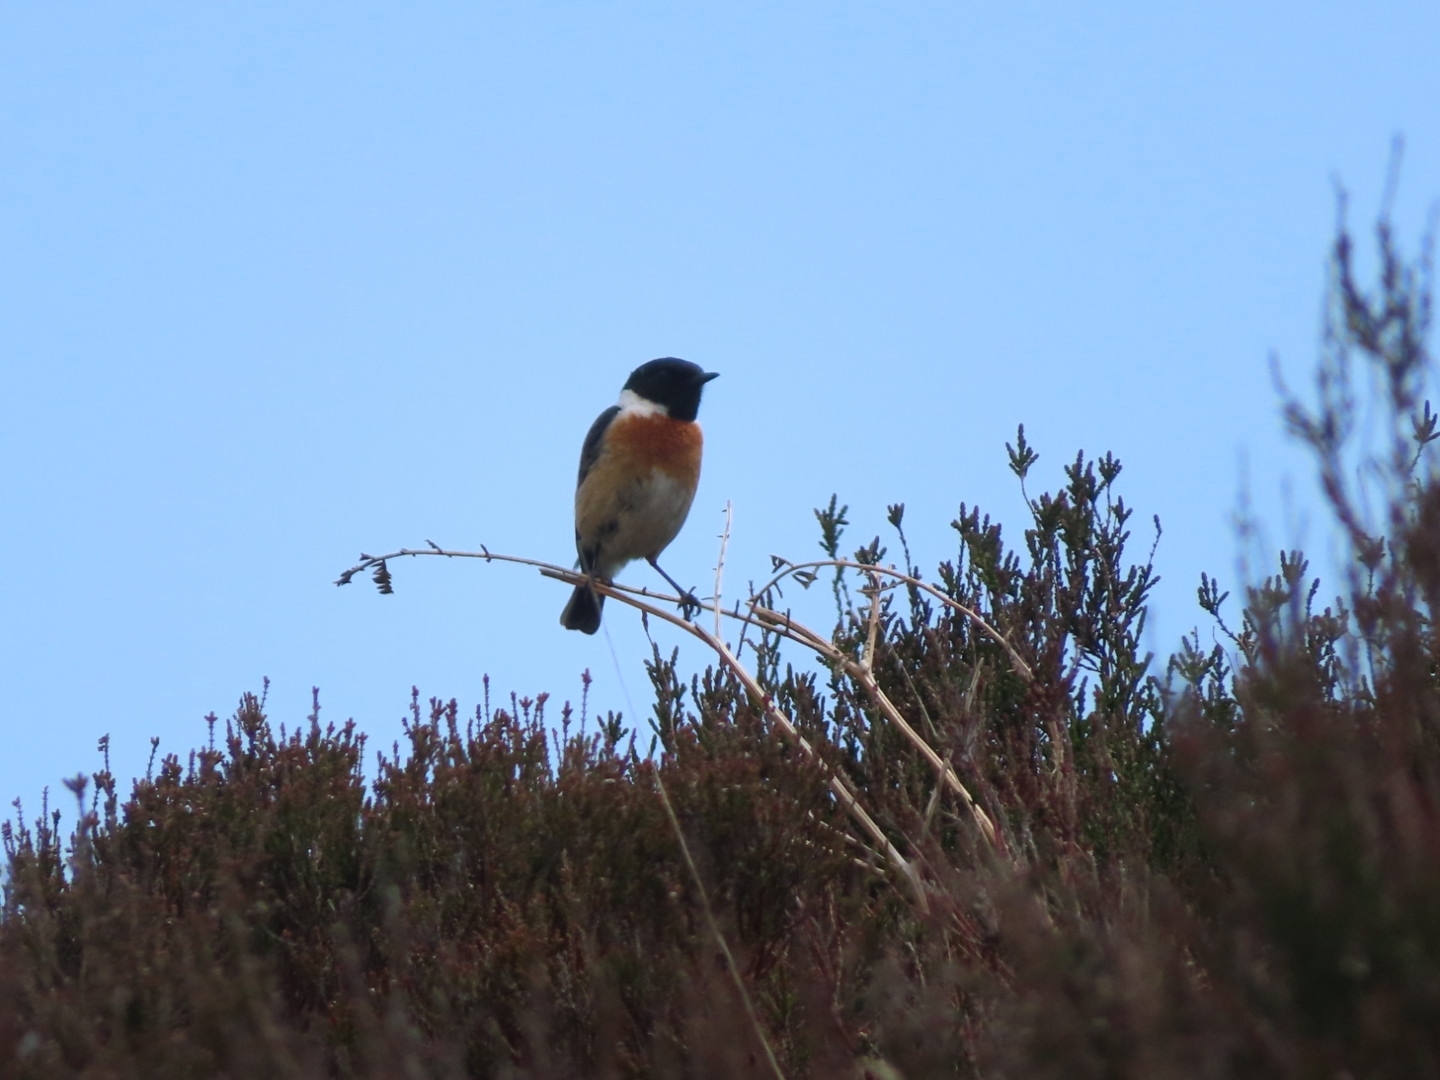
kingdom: Animalia
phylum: Chordata
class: Aves
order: Passeriformes
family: Muscicapidae
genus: Saxicola
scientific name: Saxicola rubicola
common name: European stonechat
